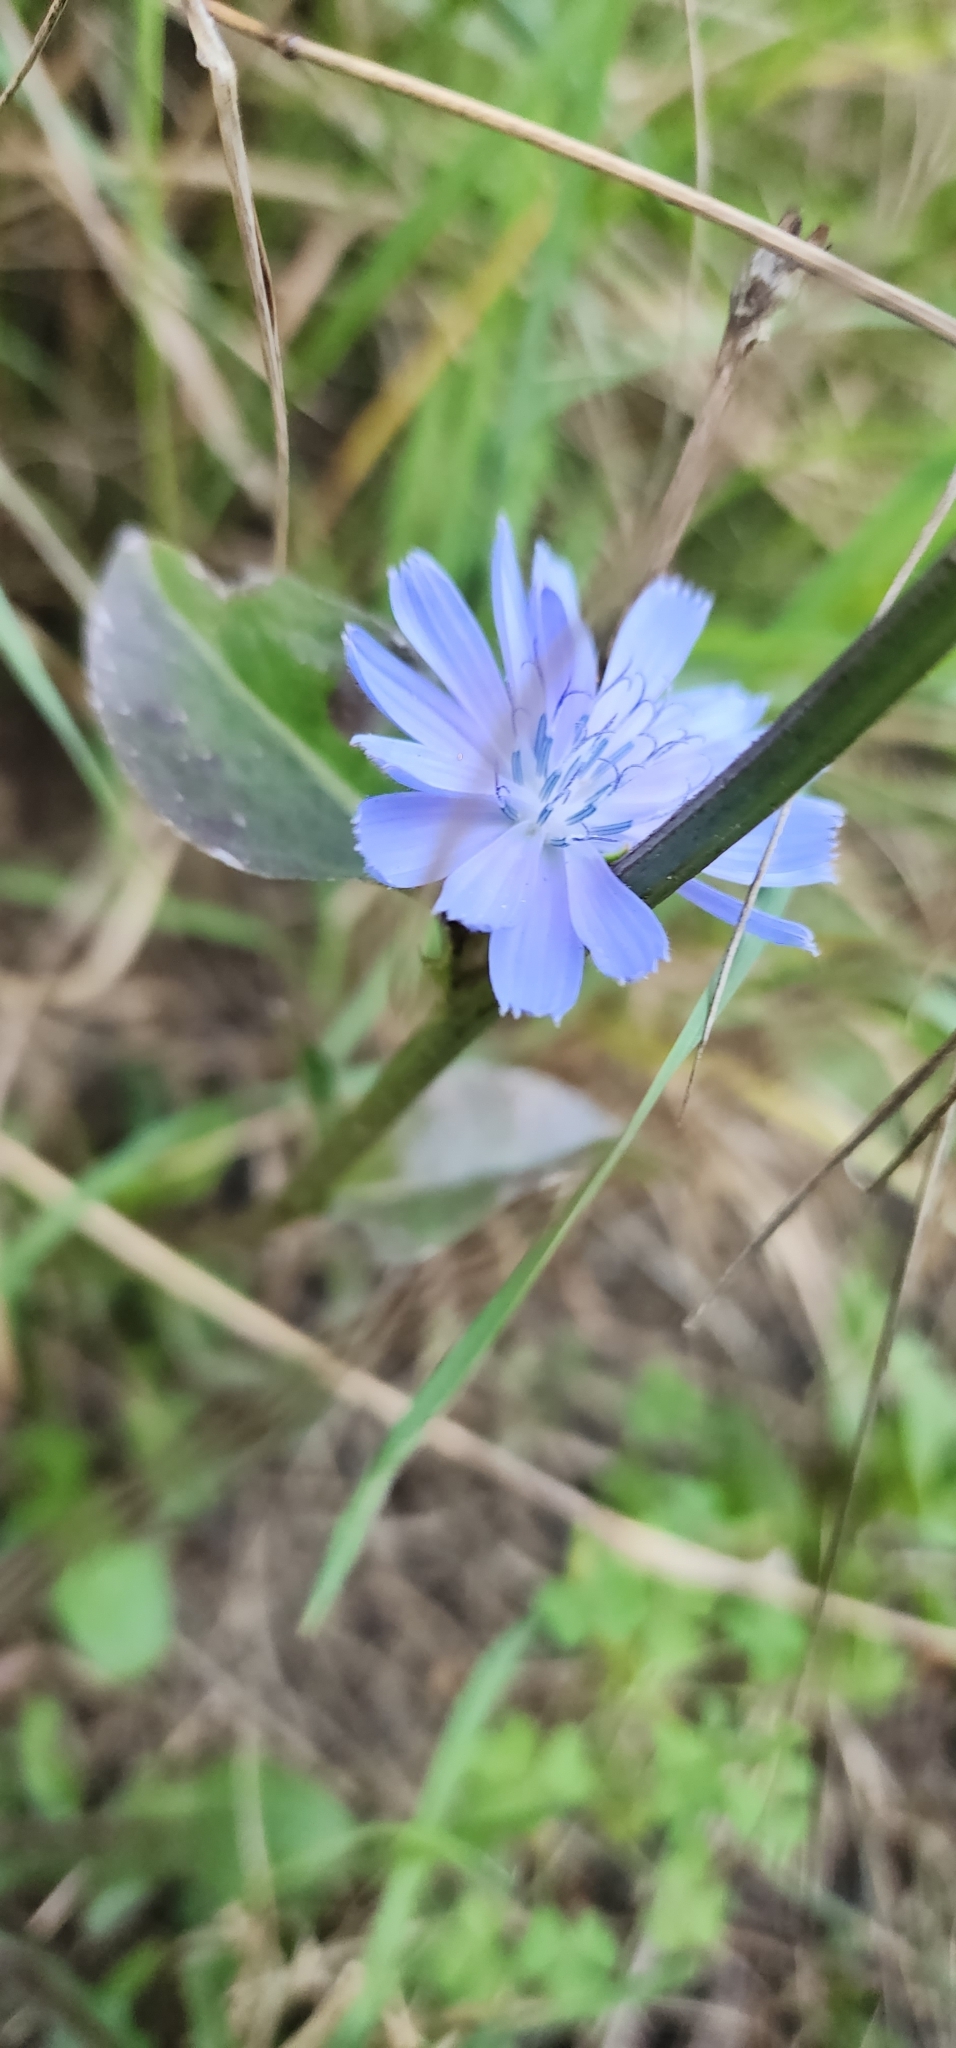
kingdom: Plantae
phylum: Tracheophyta
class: Magnoliopsida
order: Asterales
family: Asteraceae
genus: Cichorium
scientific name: Cichorium intybus
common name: Chicory
